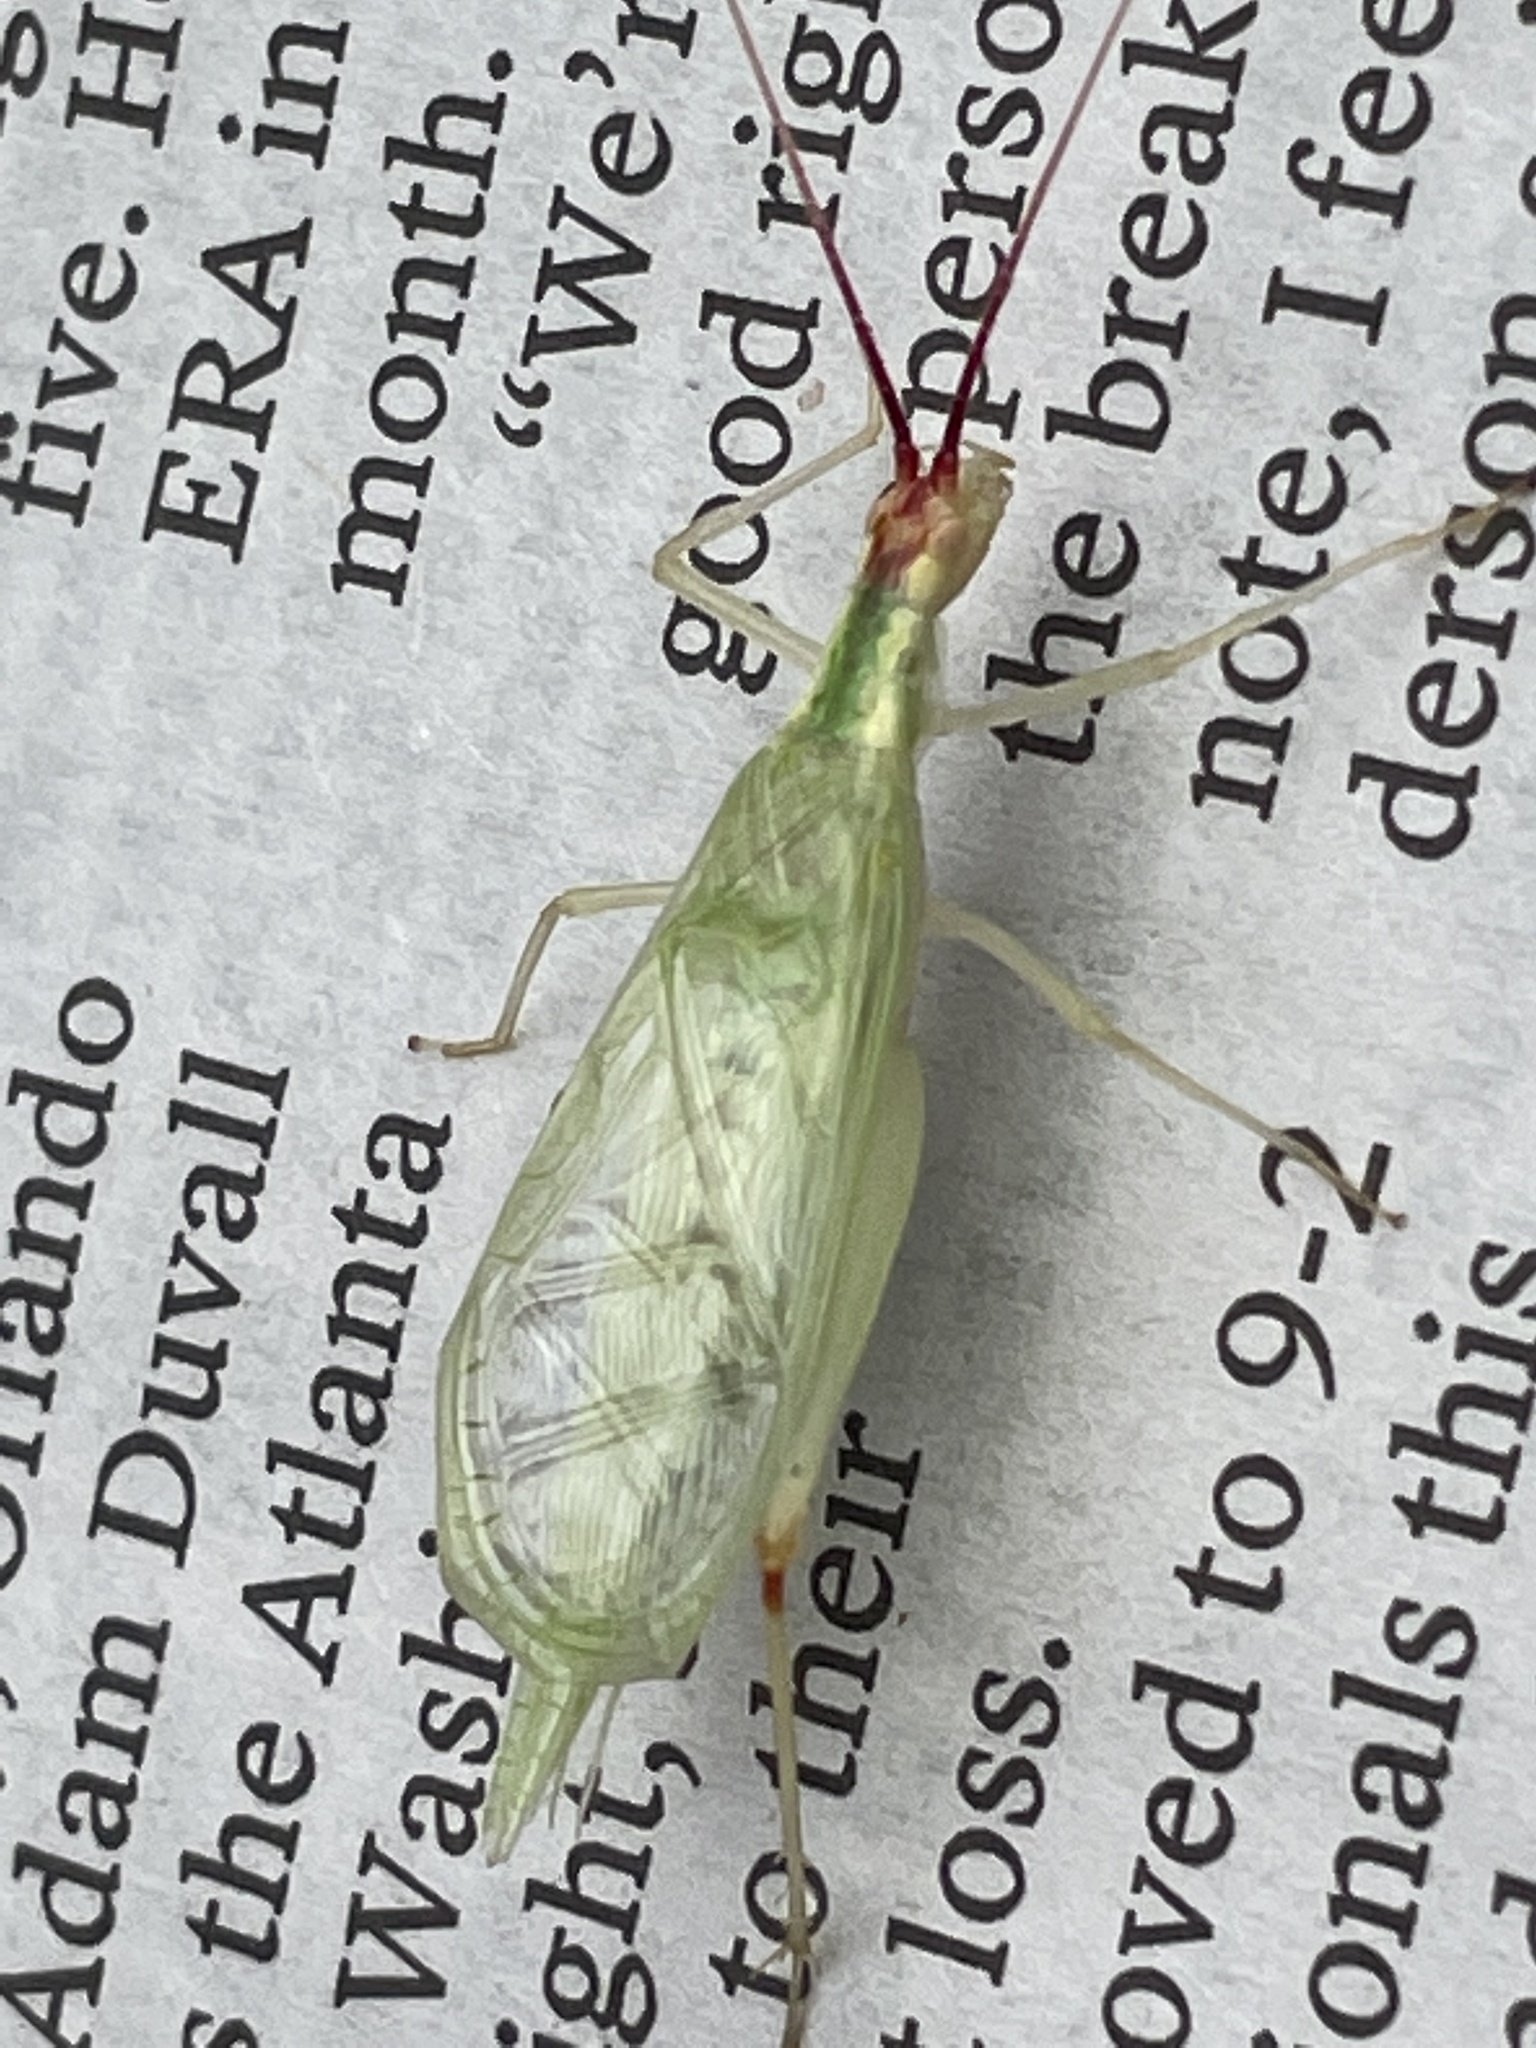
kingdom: Animalia
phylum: Arthropoda
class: Insecta
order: Orthoptera
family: Gryllidae
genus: Oecanthus
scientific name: Oecanthus latipennis
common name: Broad-winged tree cricket
